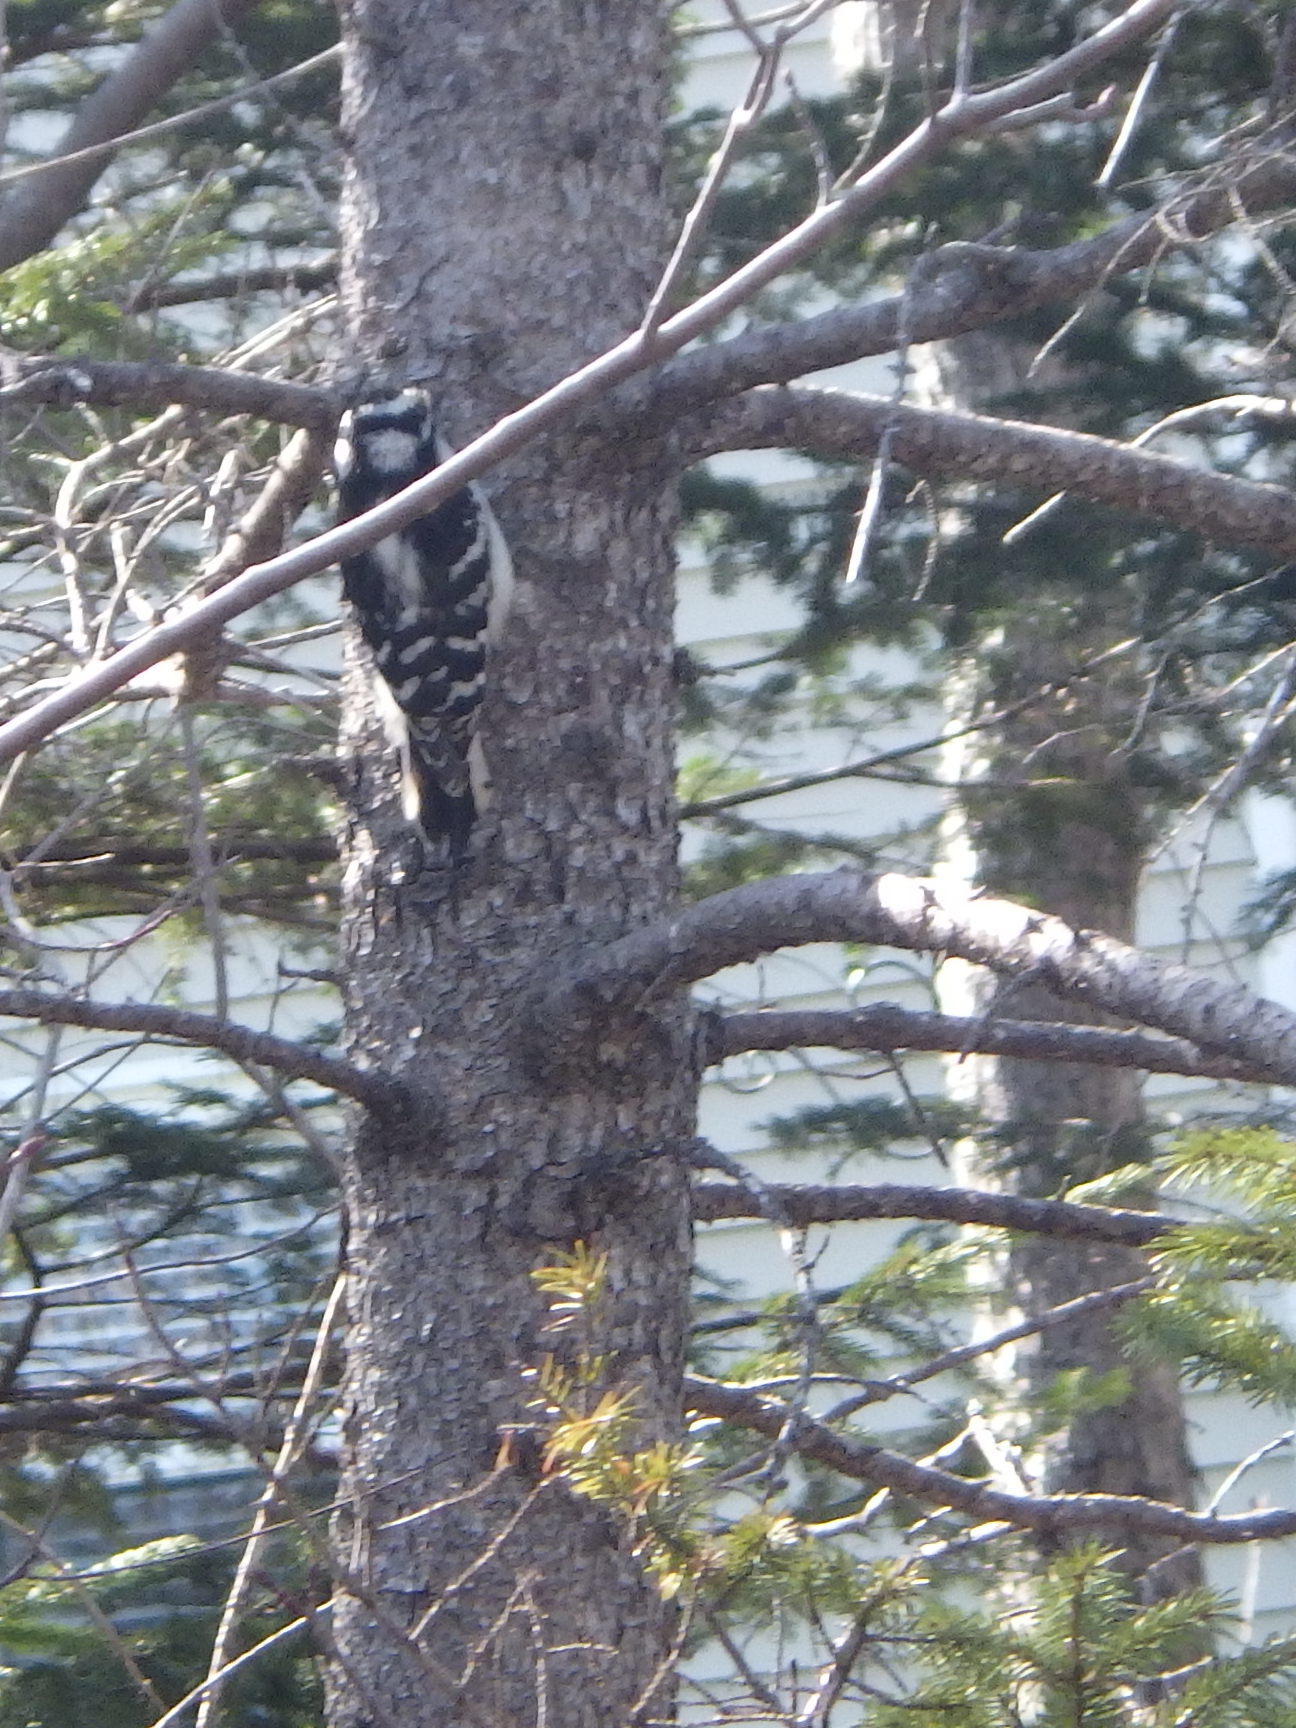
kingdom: Animalia
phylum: Chordata
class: Aves
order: Piciformes
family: Picidae
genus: Dryobates
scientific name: Dryobates pubescens
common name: Downy woodpecker
